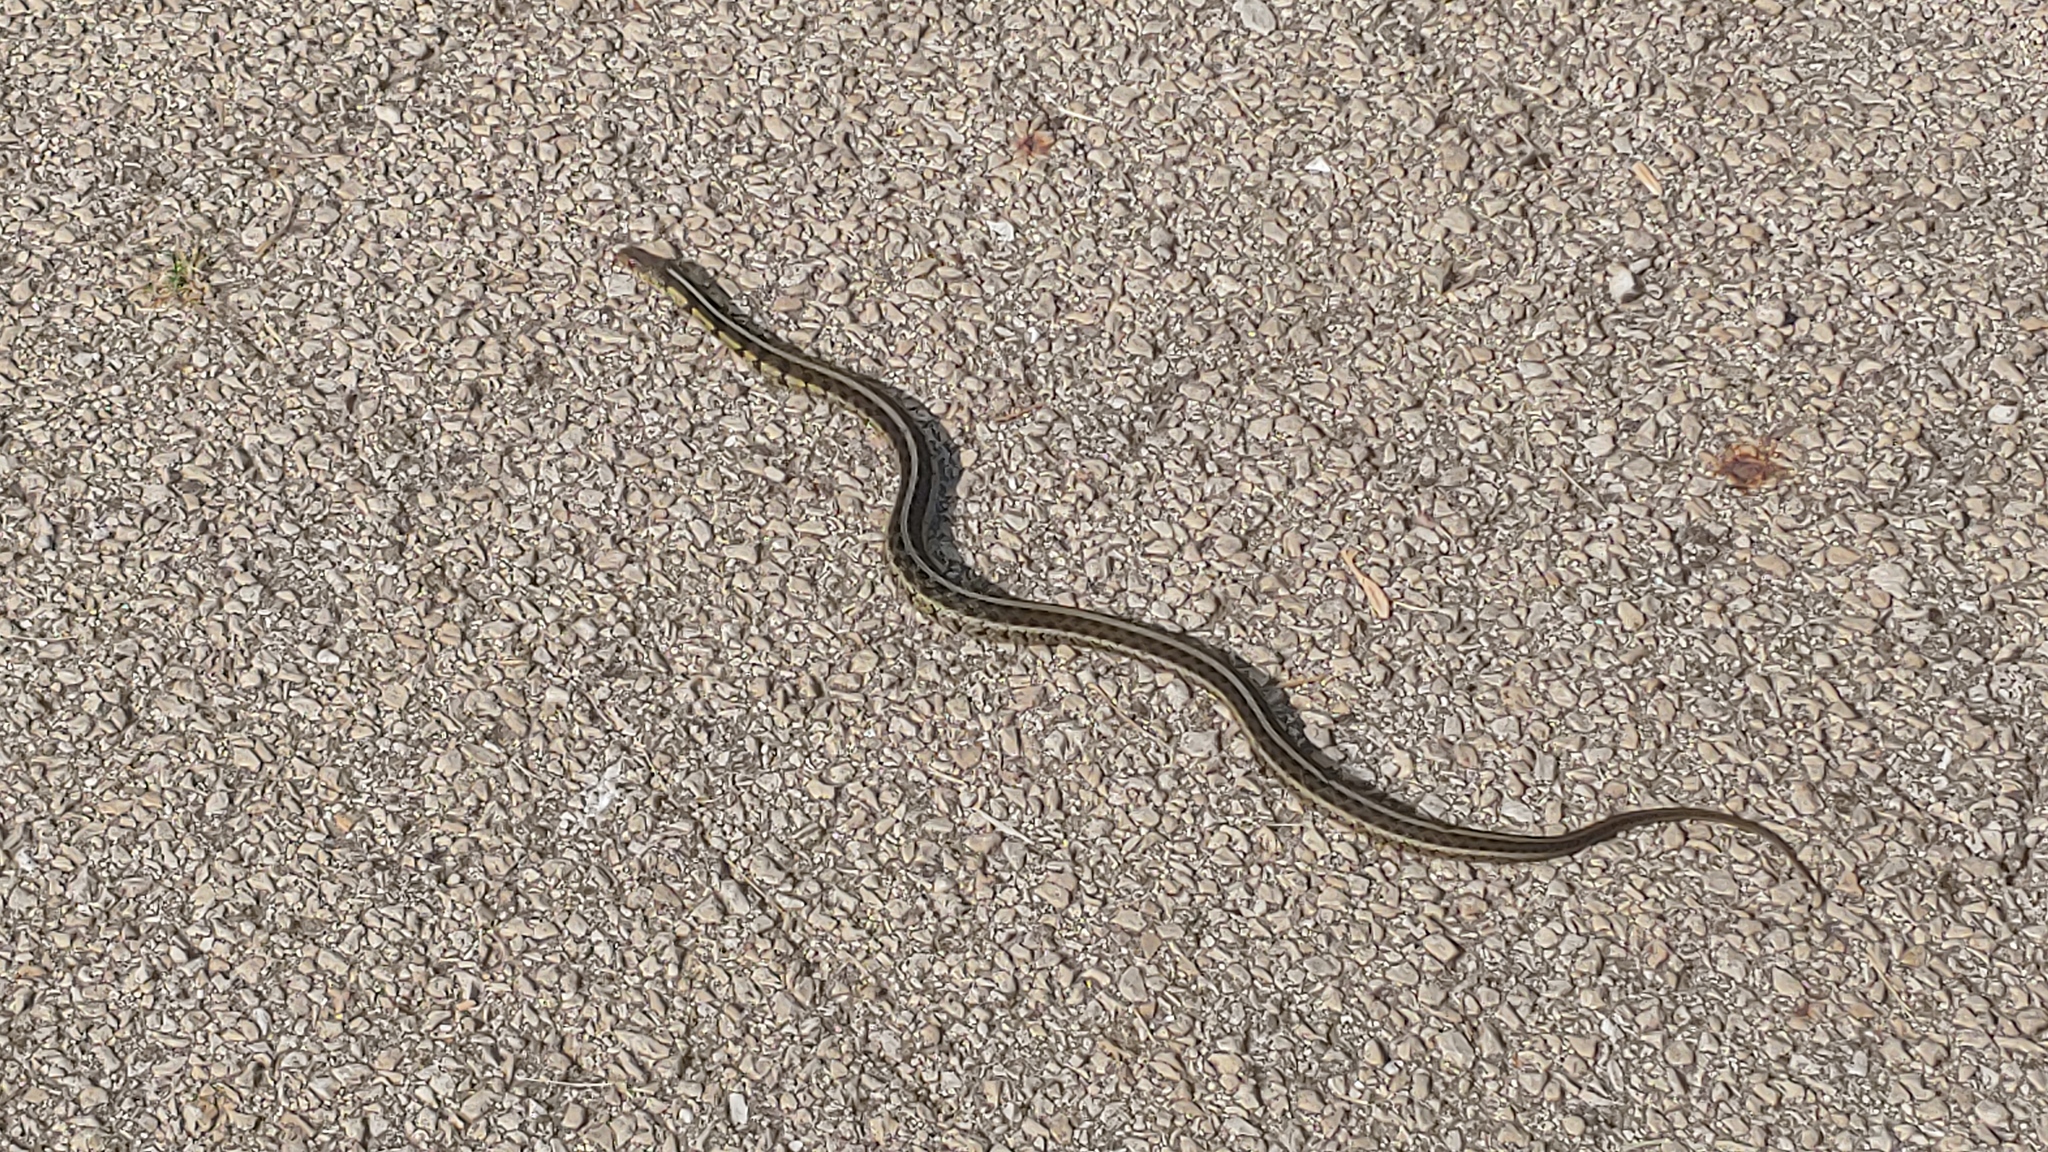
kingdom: Animalia
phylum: Chordata
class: Squamata
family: Colubridae
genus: Thamnophis
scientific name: Thamnophis sirtalis
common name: Common garter snake
